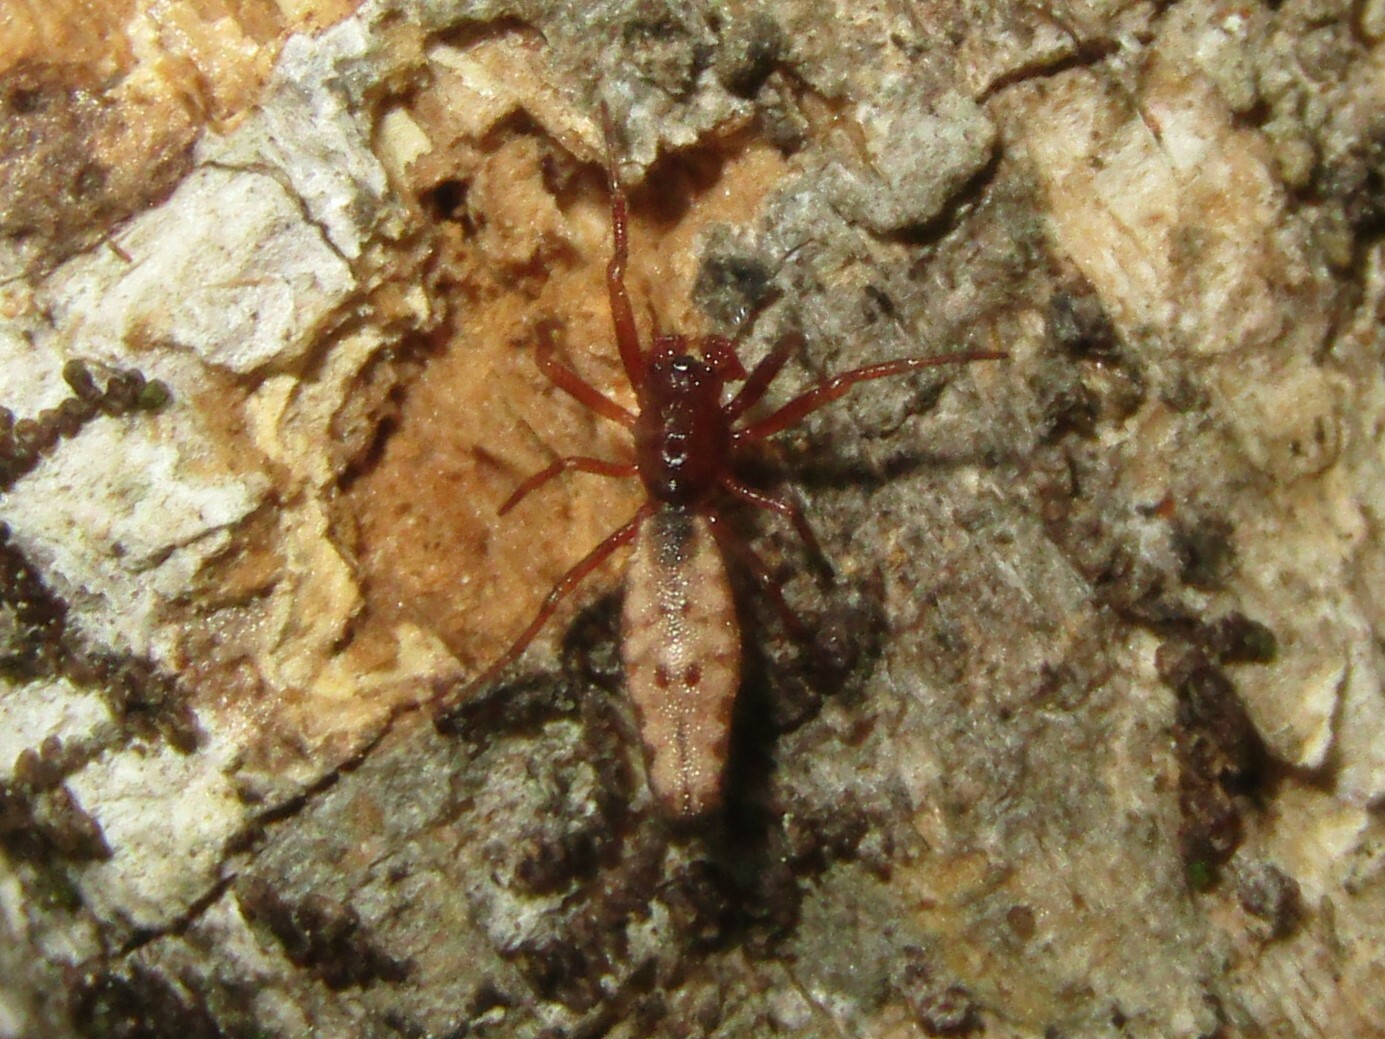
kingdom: Animalia
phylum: Arthropoda
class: Arachnida
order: Araneae
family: Araneidae
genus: Micrathena
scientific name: Micrathena gracilis
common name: Orb weavers
